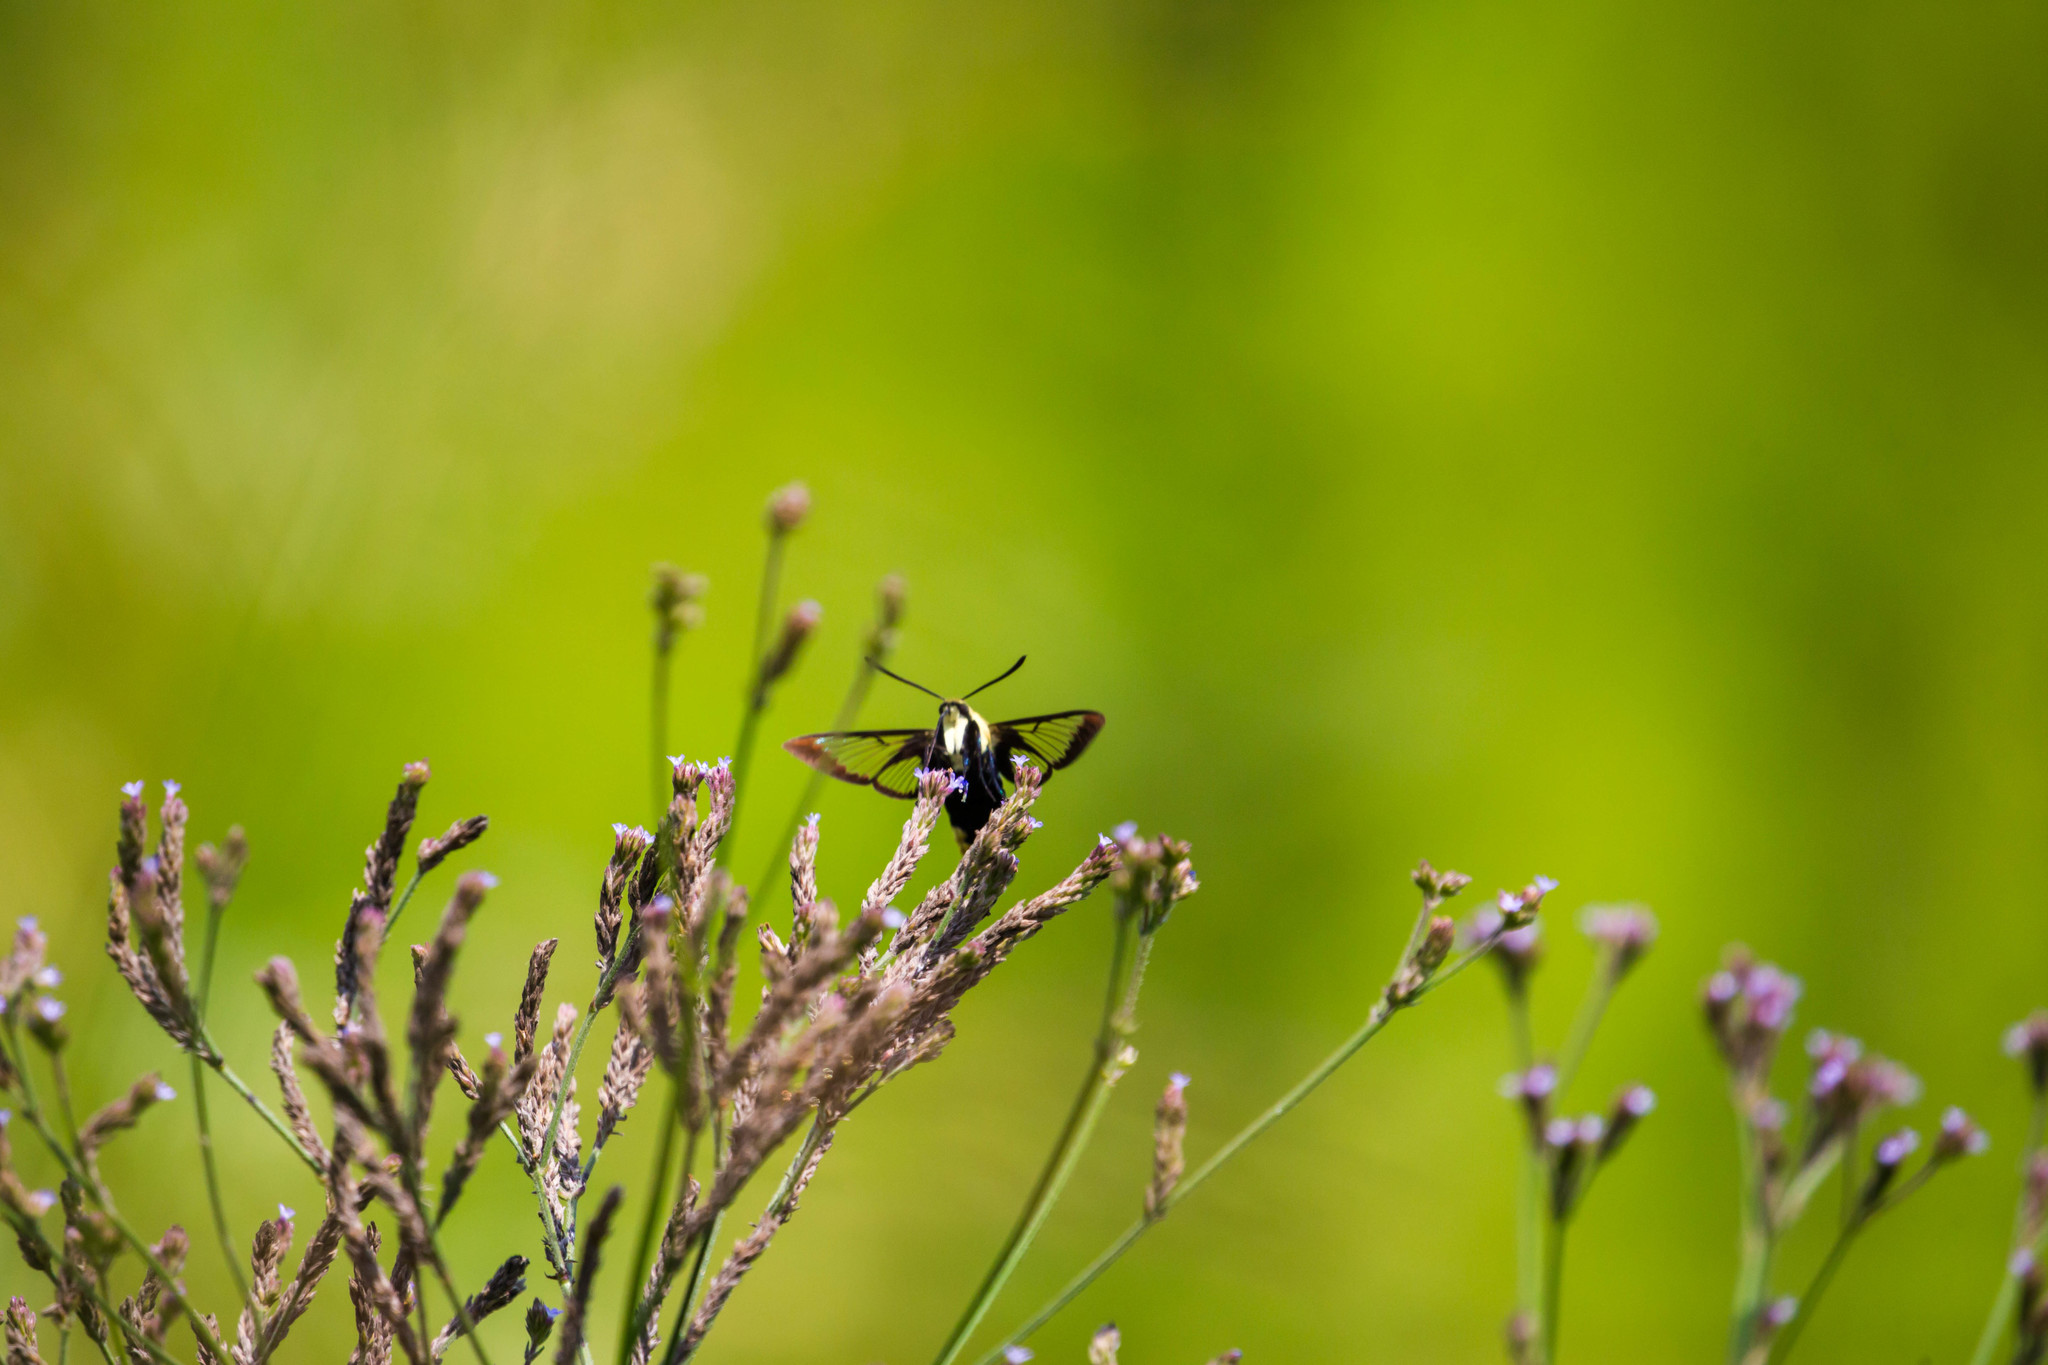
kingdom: Animalia
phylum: Arthropoda
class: Insecta
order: Lepidoptera
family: Sphingidae
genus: Hemaris
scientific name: Hemaris diffinis
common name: Bumblebee moth
